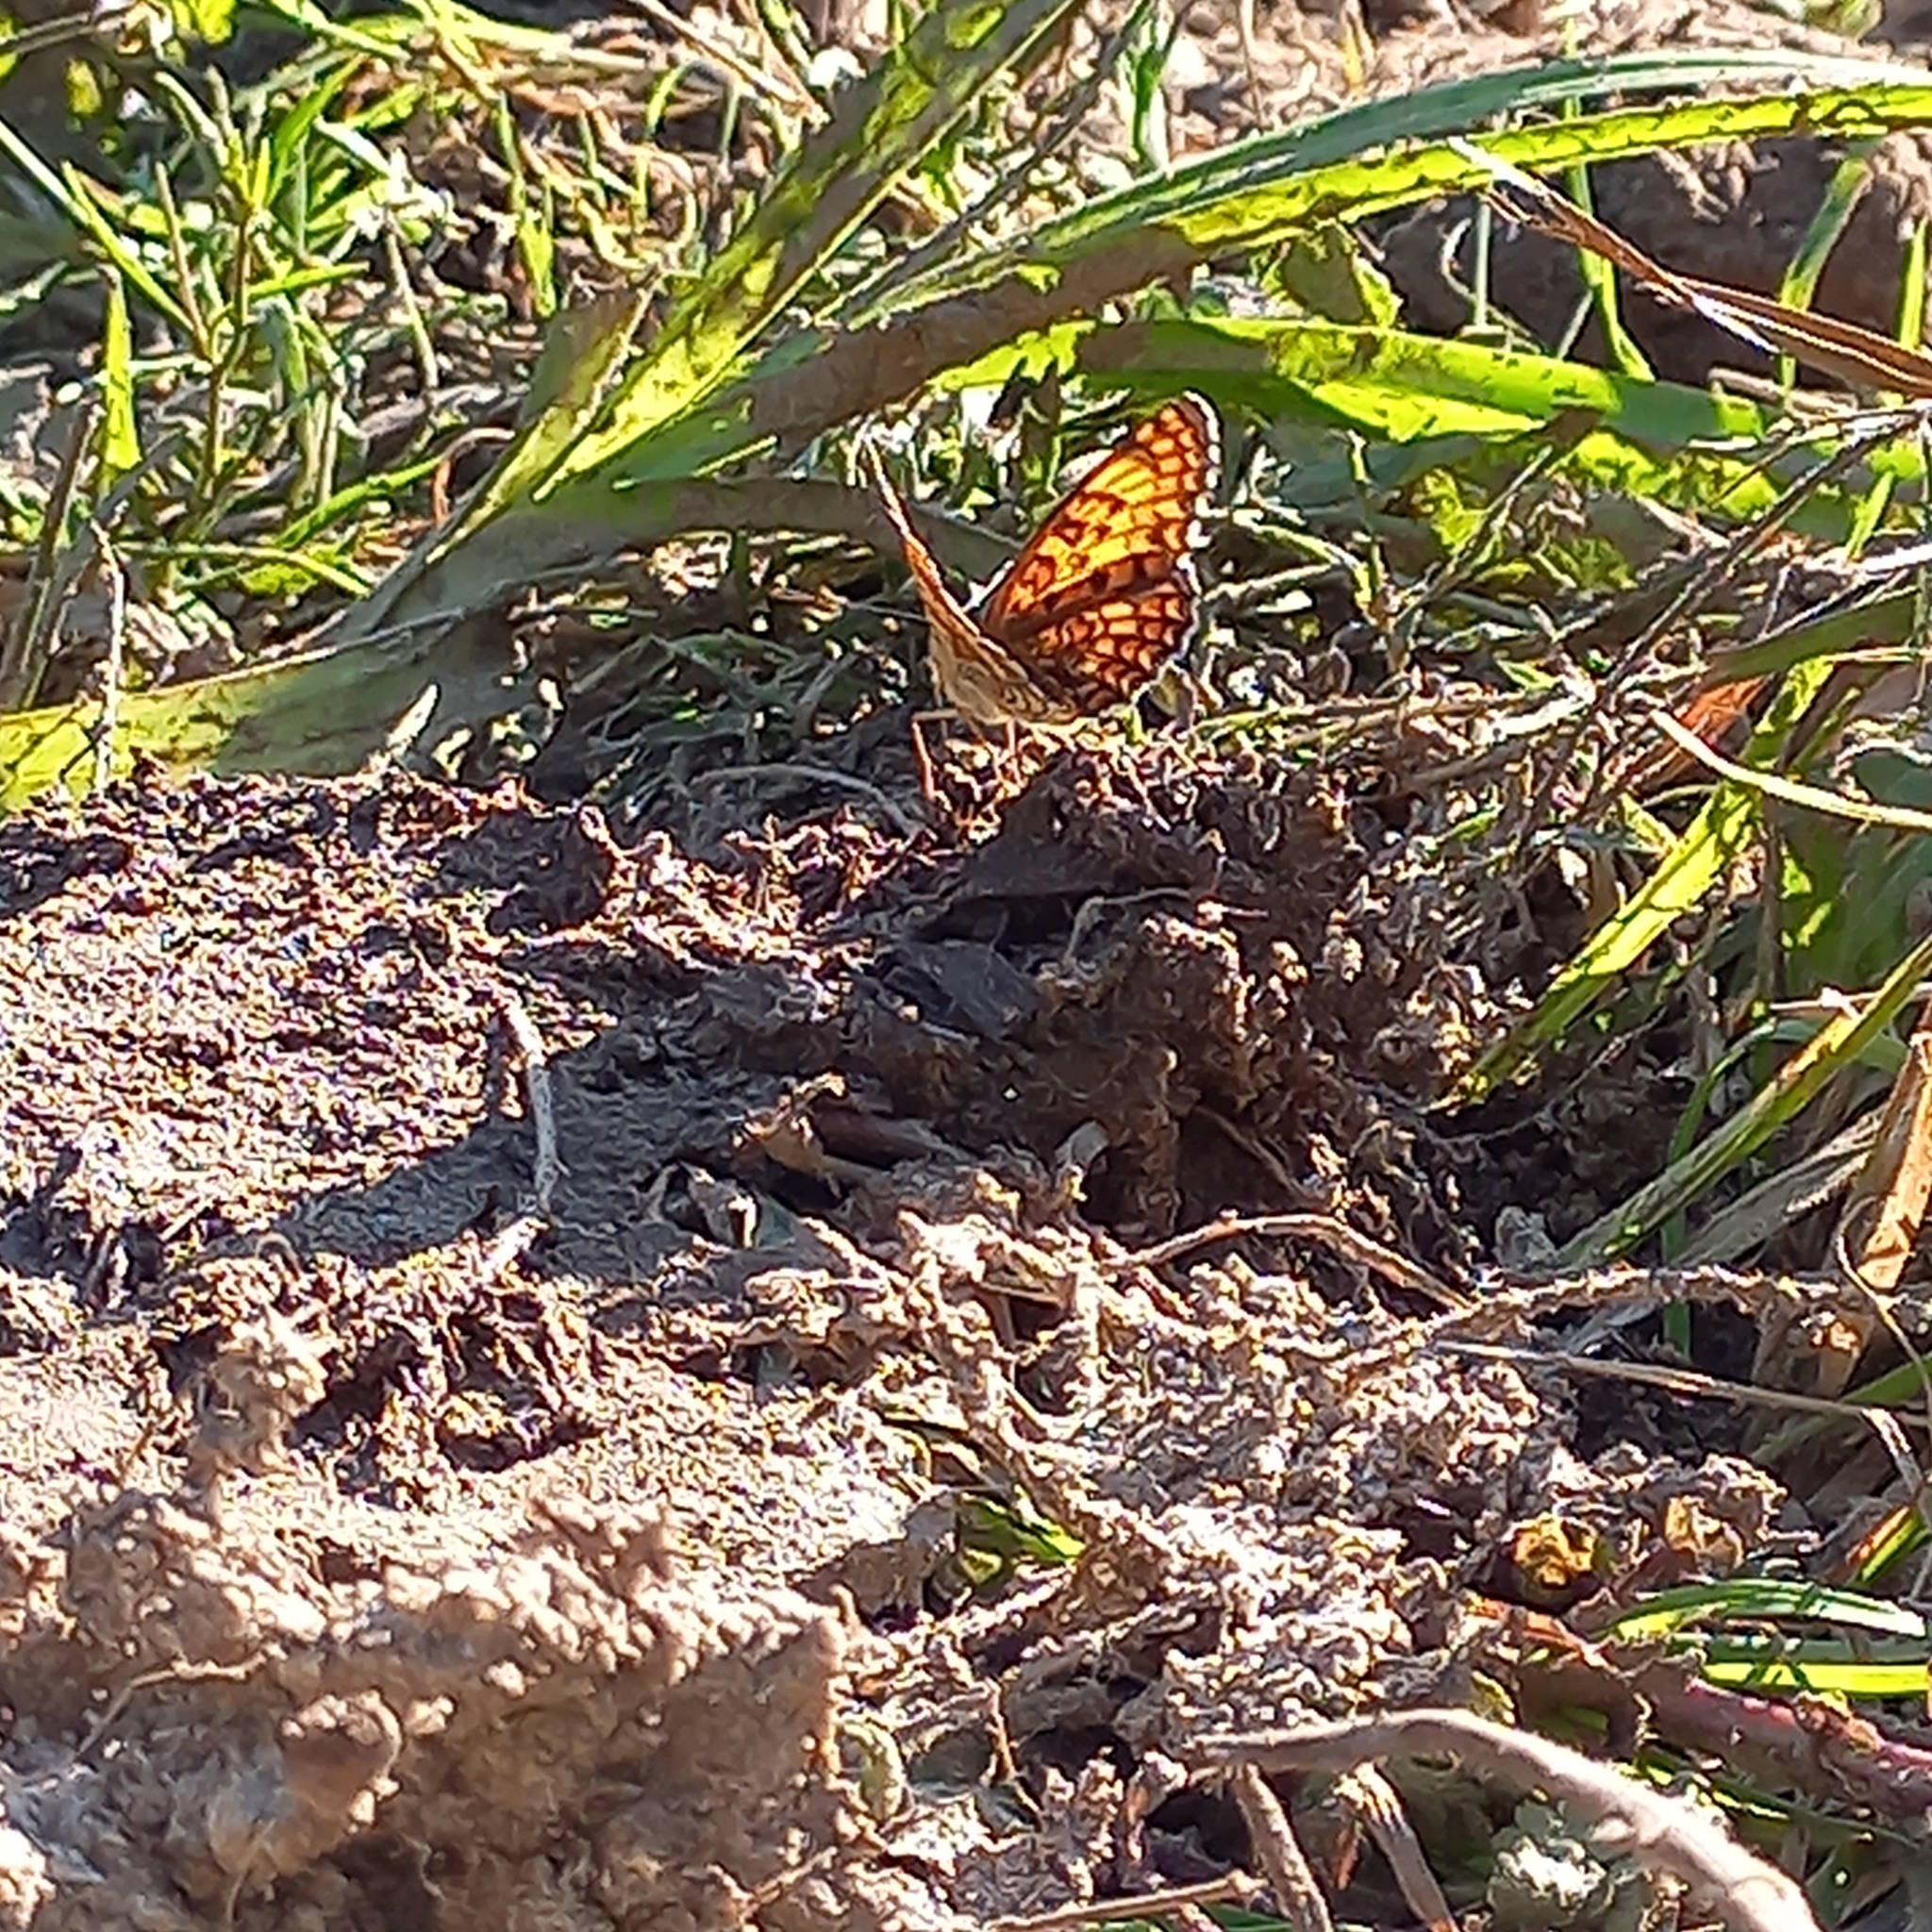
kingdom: Animalia
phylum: Arthropoda
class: Insecta
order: Lepidoptera
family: Nymphalidae
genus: Melitaea
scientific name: Melitaea phoebe
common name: Knapweed fritillary
